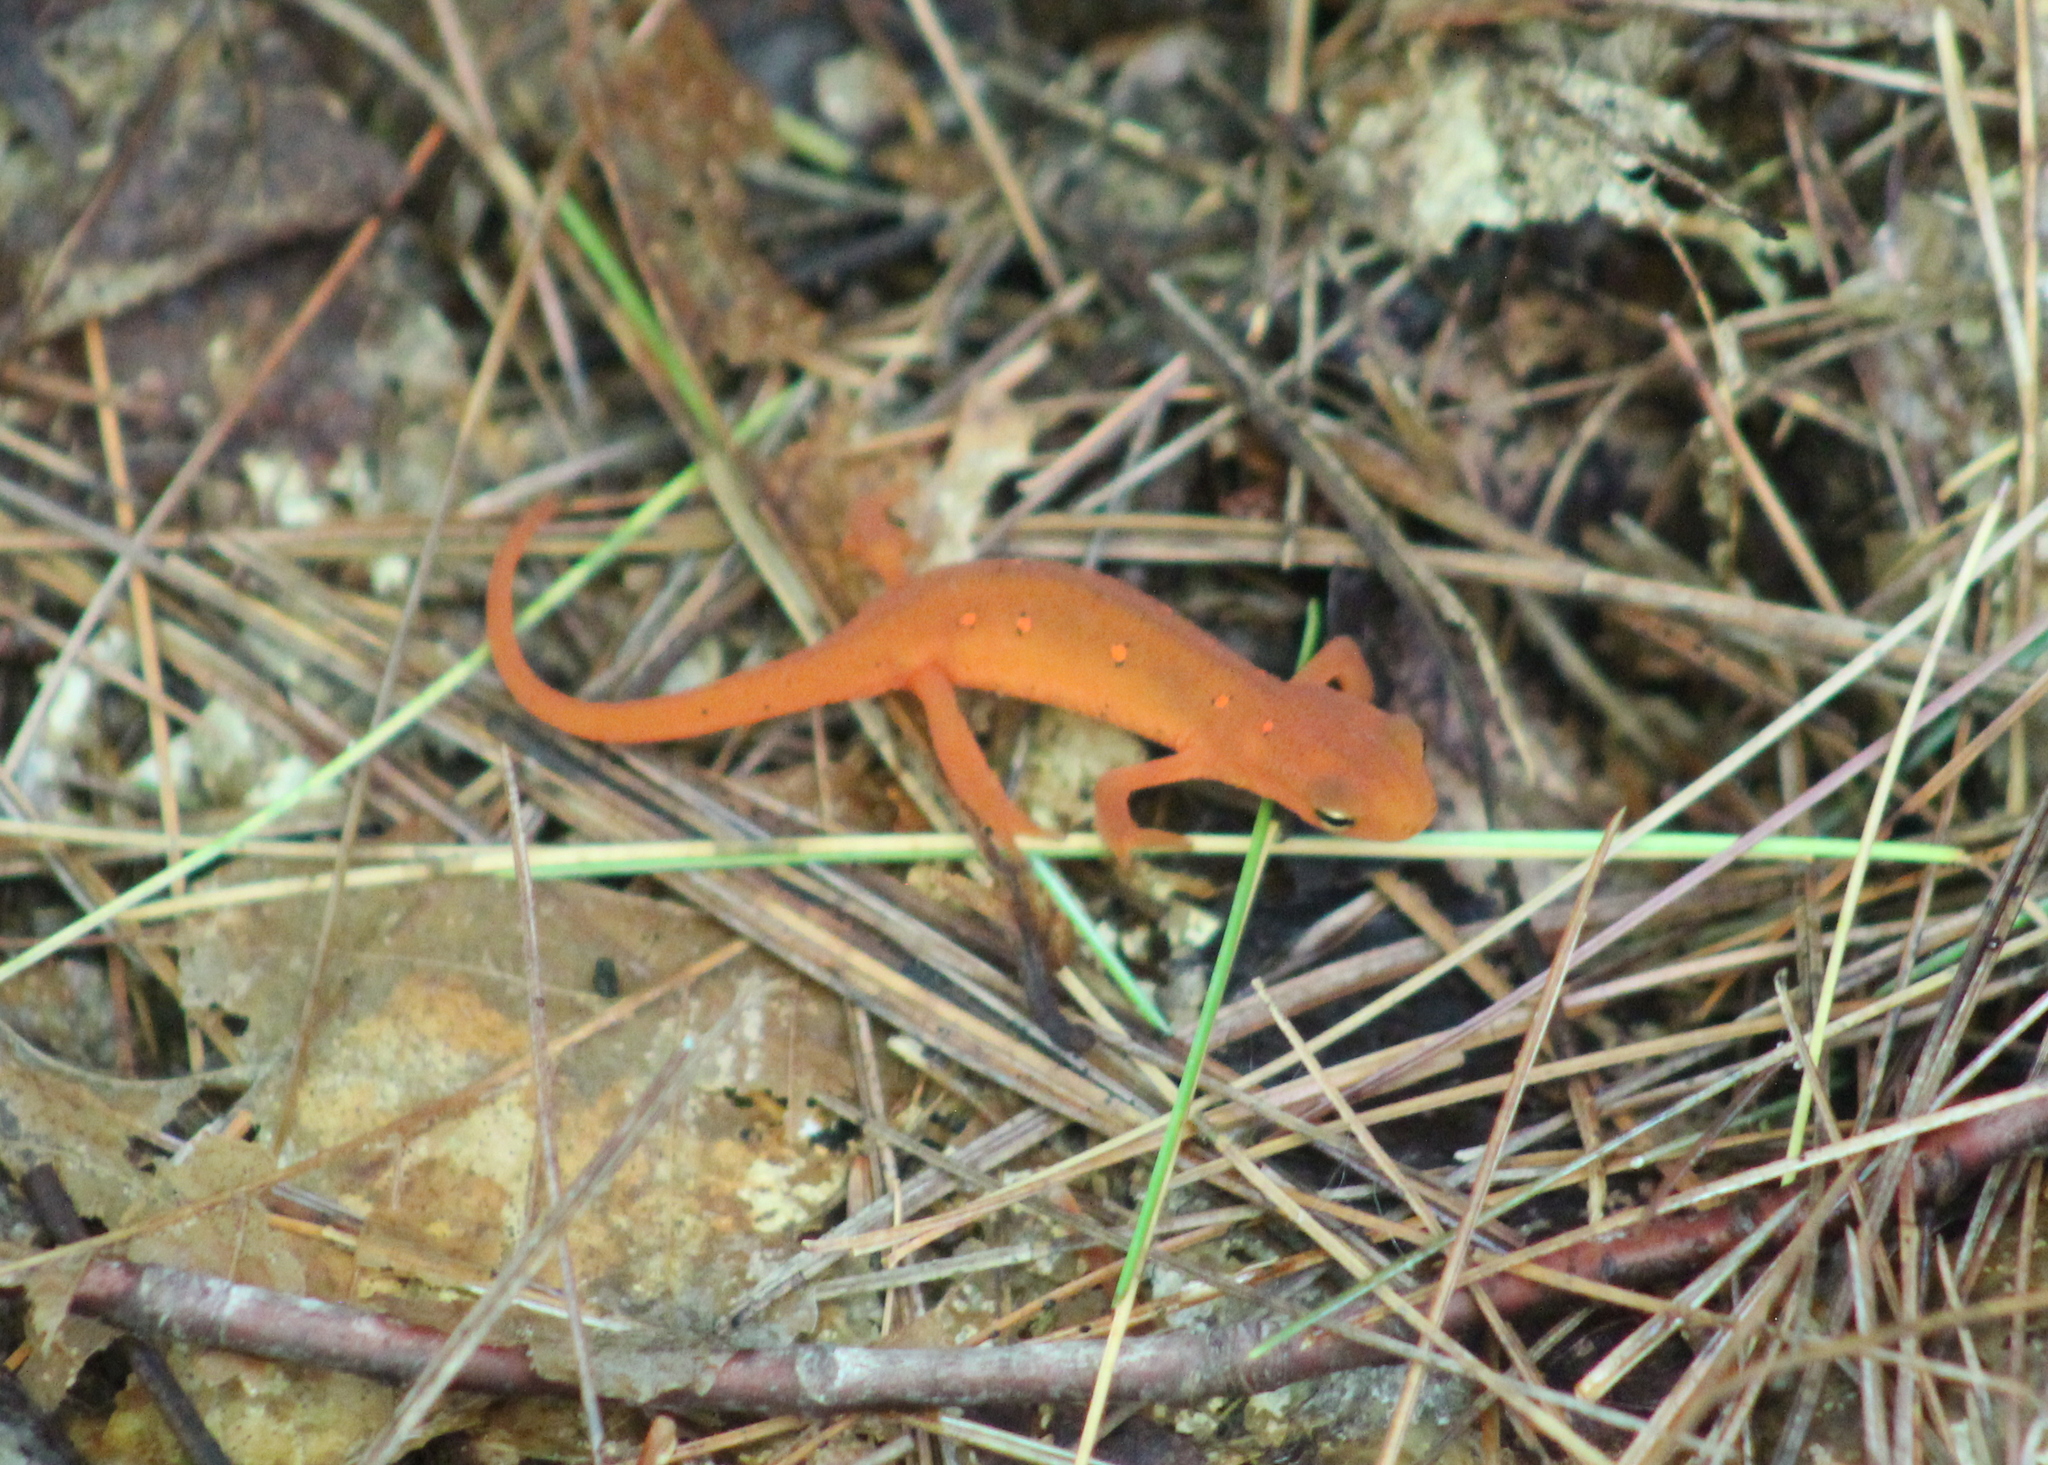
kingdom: Animalia
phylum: Chordata
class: Amphibia
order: Caudata
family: Salamandridae
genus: Notophthalmus
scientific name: Notophthalmus viridescens
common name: Eastern newt
